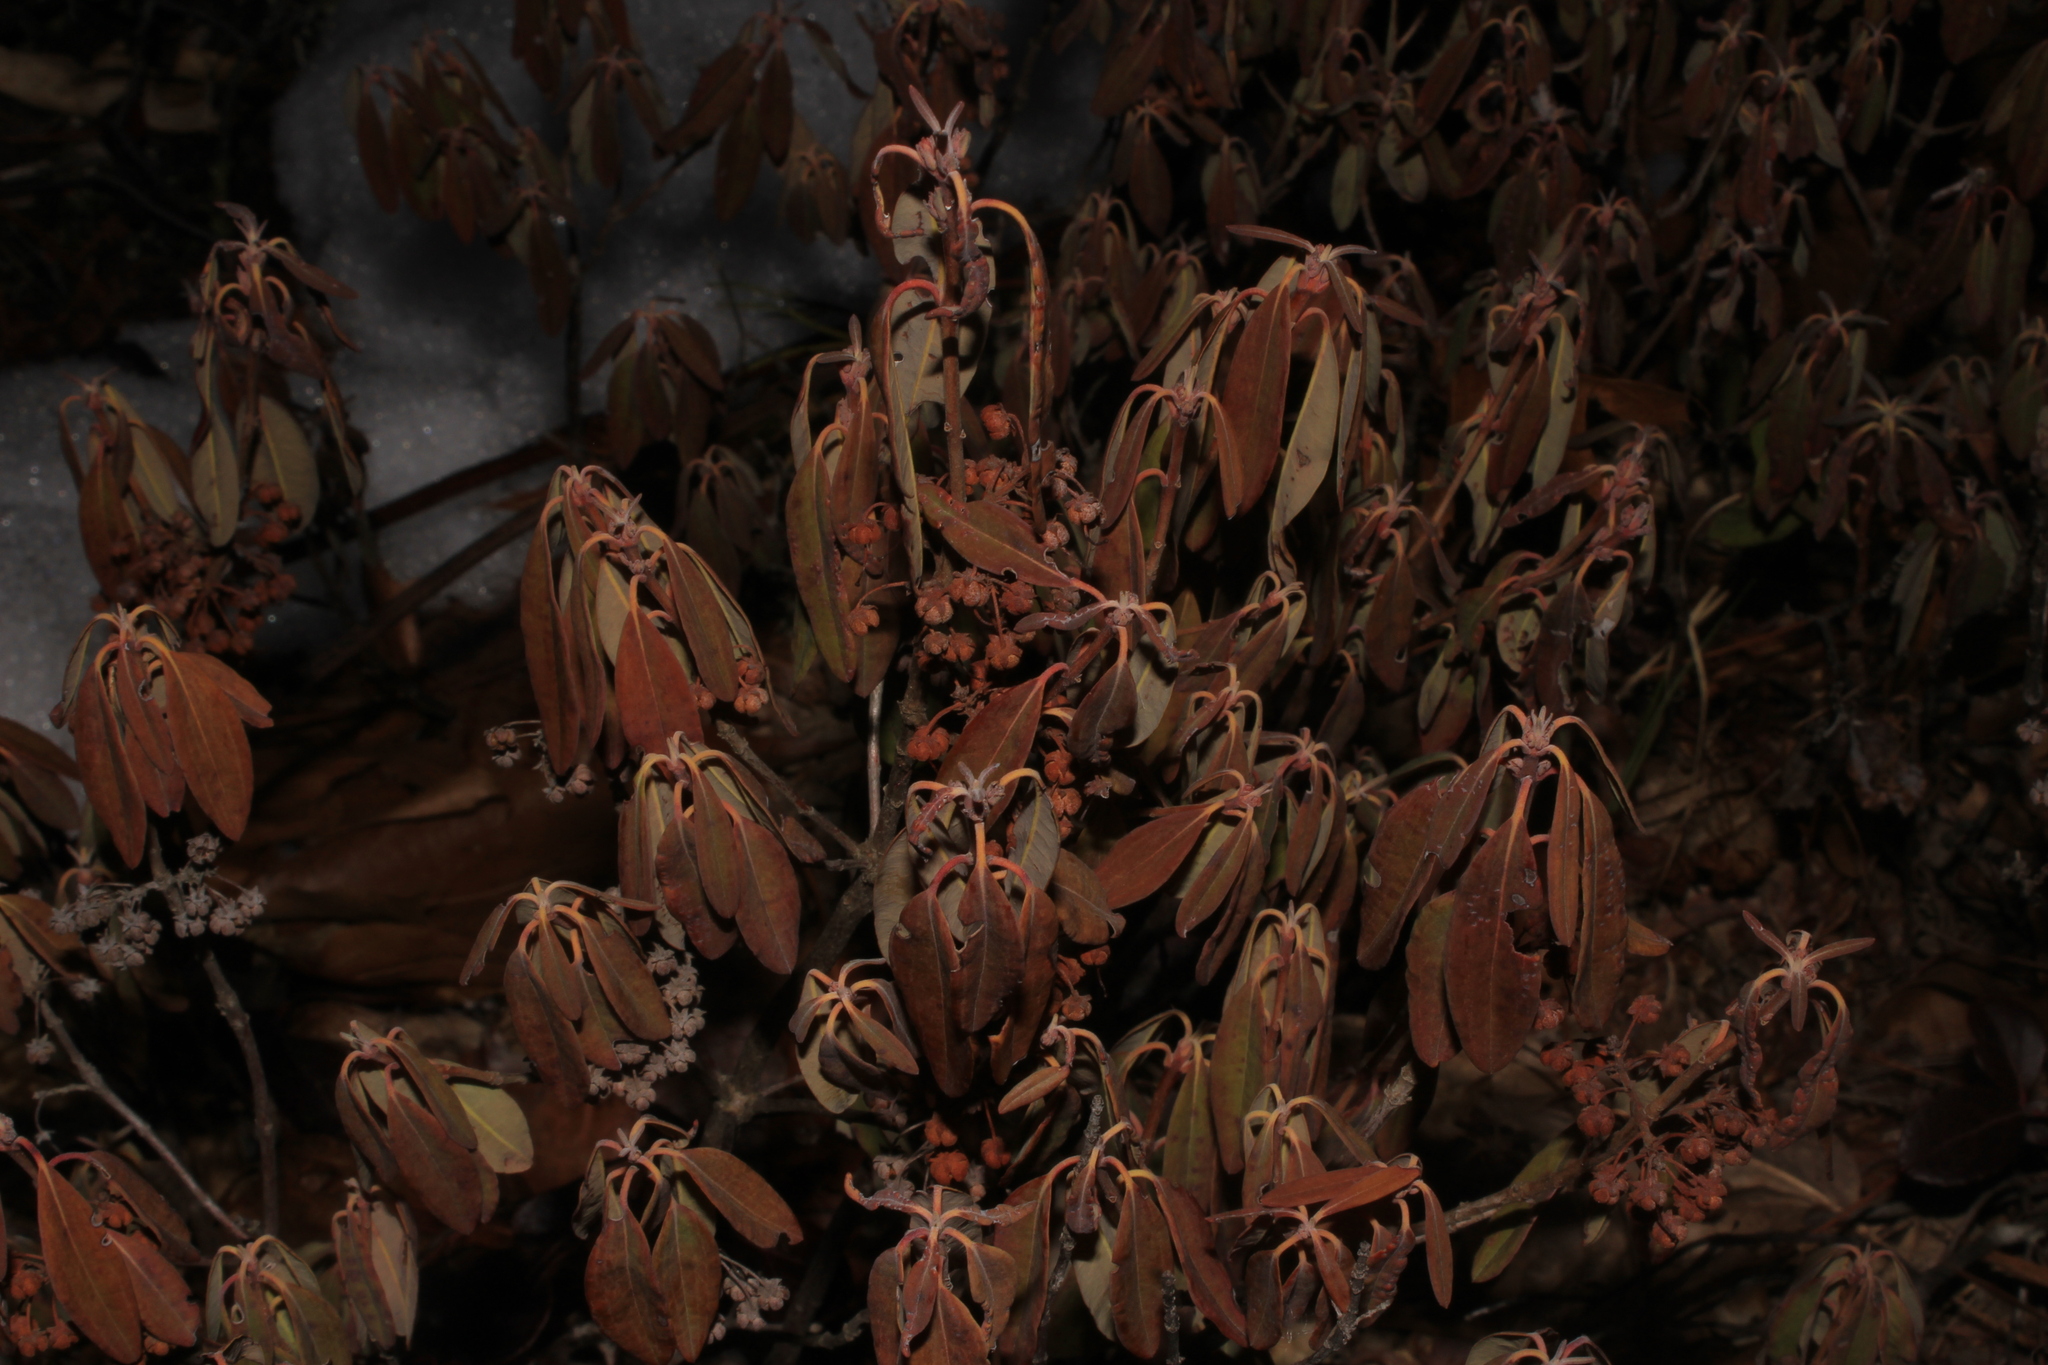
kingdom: Plantae
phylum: Tracheophyta
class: Magnoliopsida
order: Ericales
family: Ericaceae
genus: Kalmia
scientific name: Kalmia angustifolia
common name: Sheep-laurel
